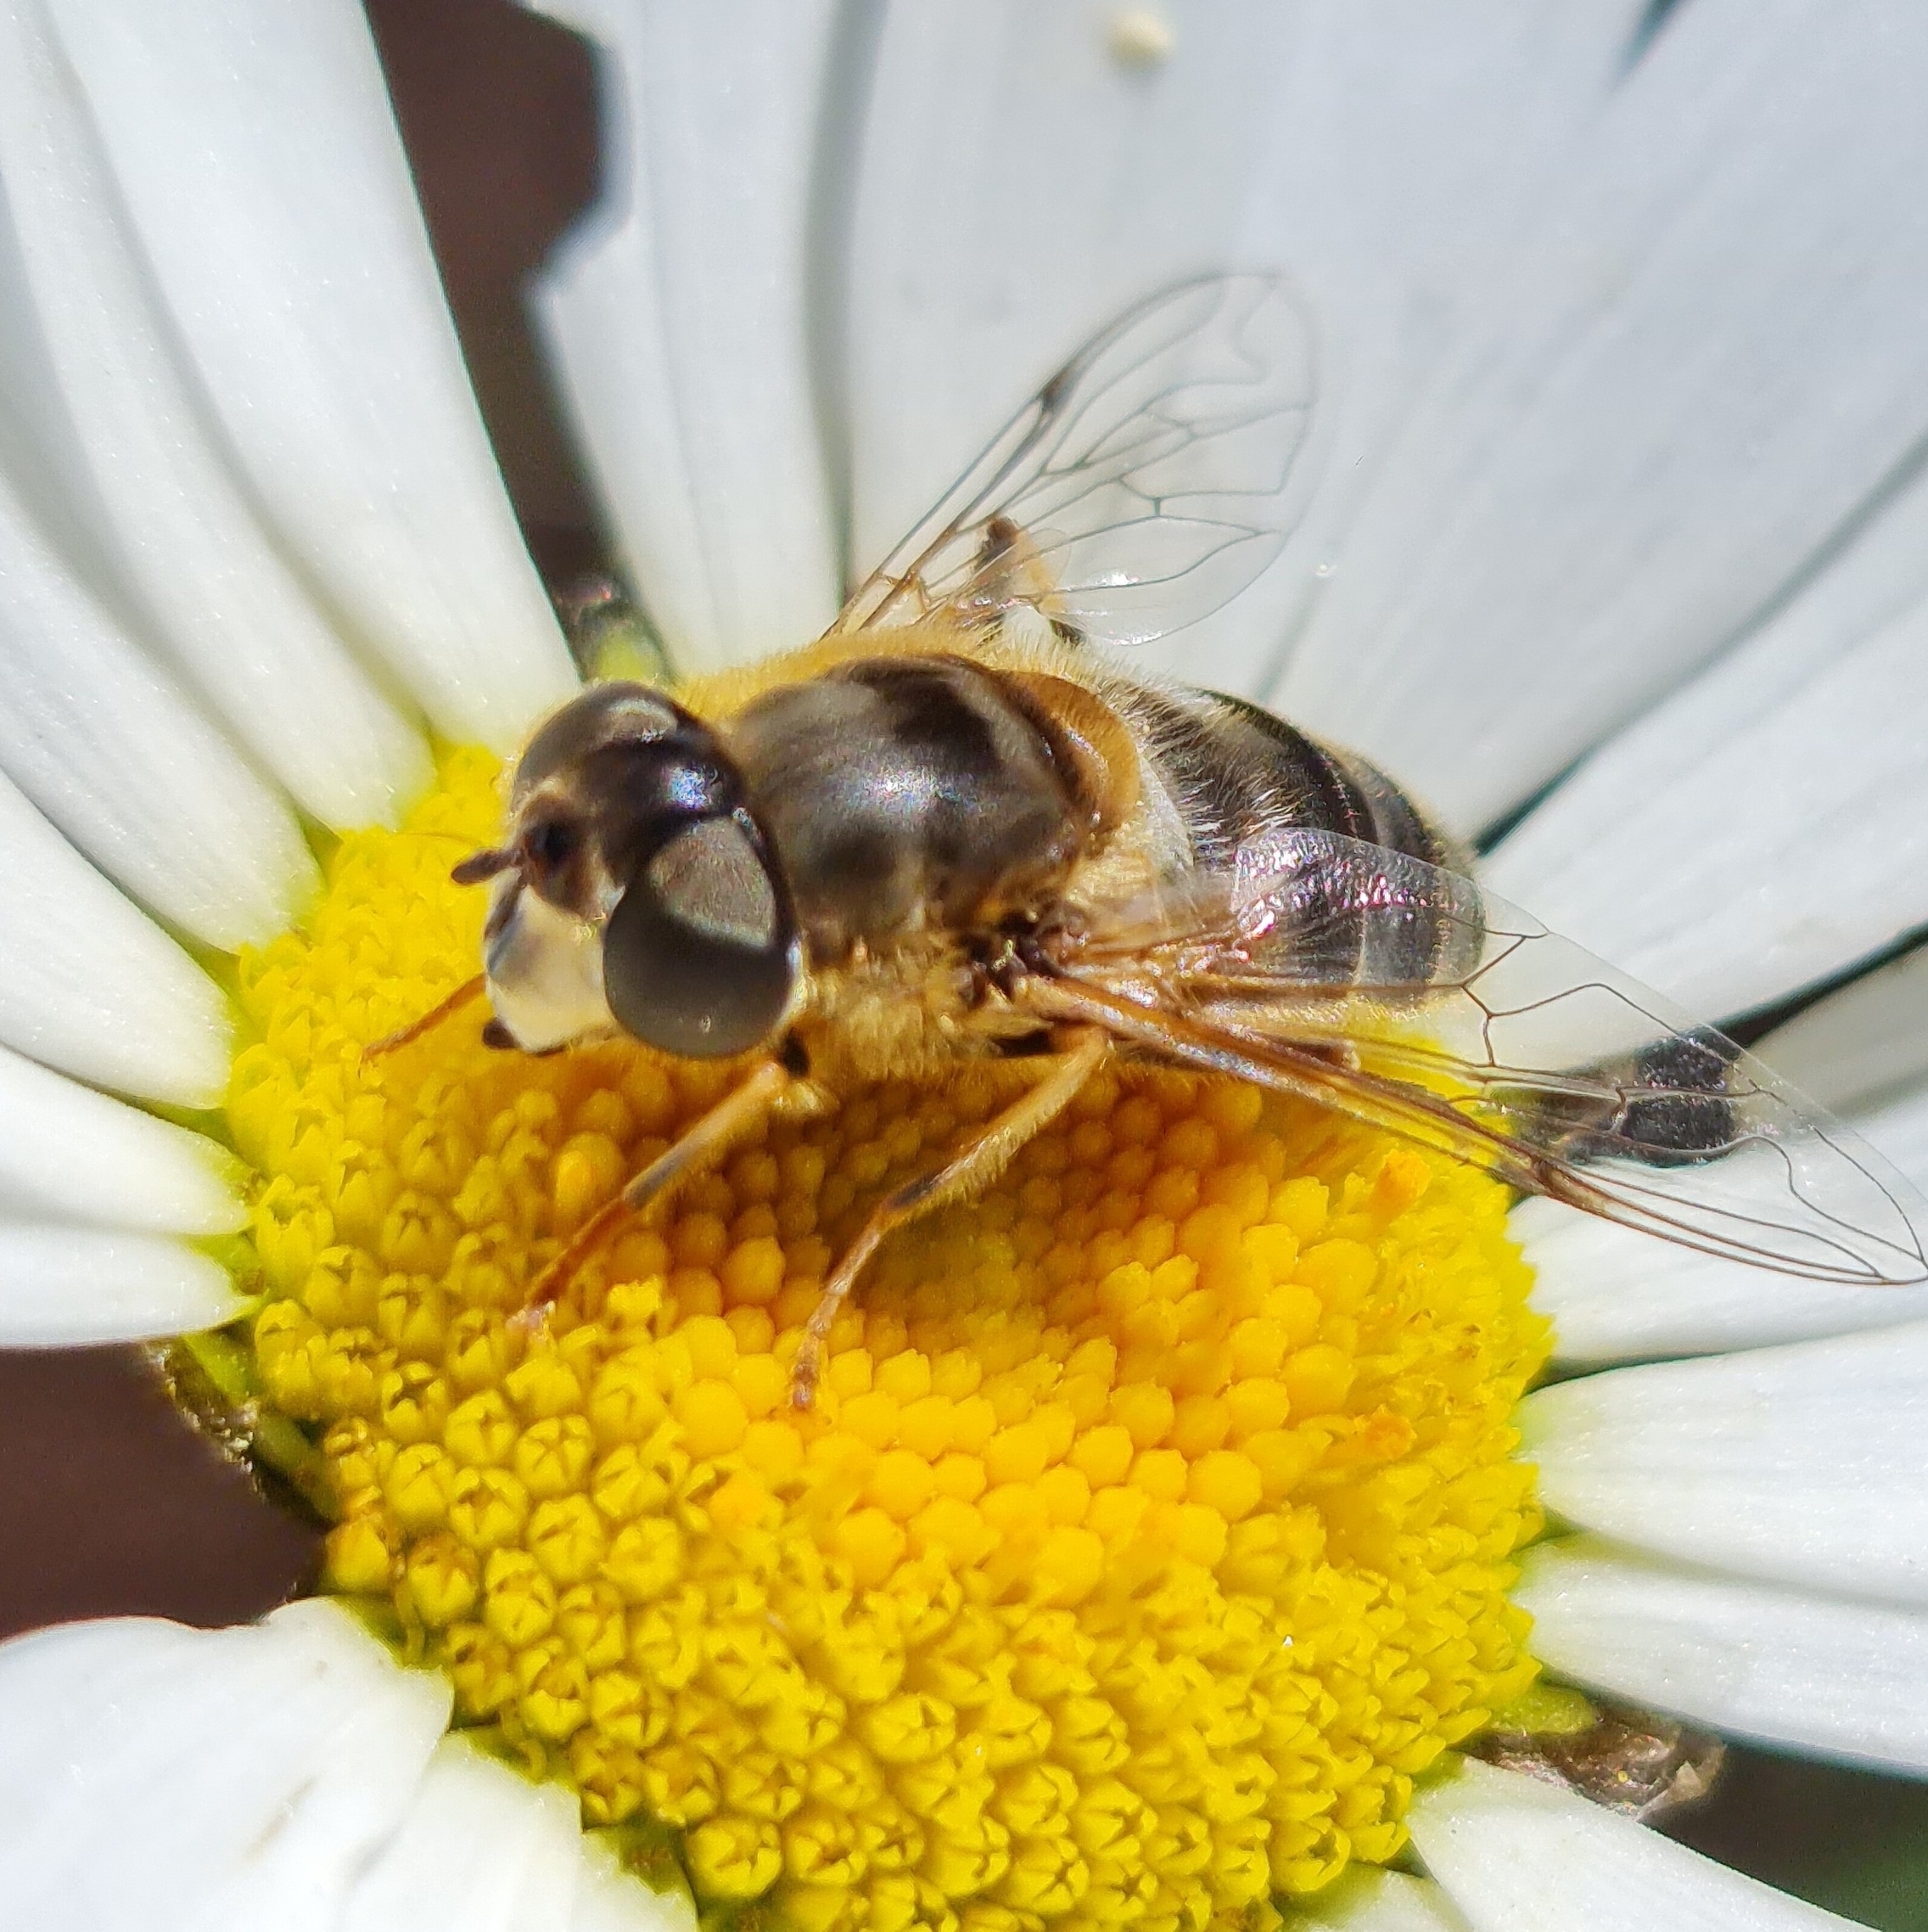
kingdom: Animalia
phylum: Arthropoda
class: Insecta
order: Diptera
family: Syrphidae
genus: Eristalis
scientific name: Eristalis pertinax
